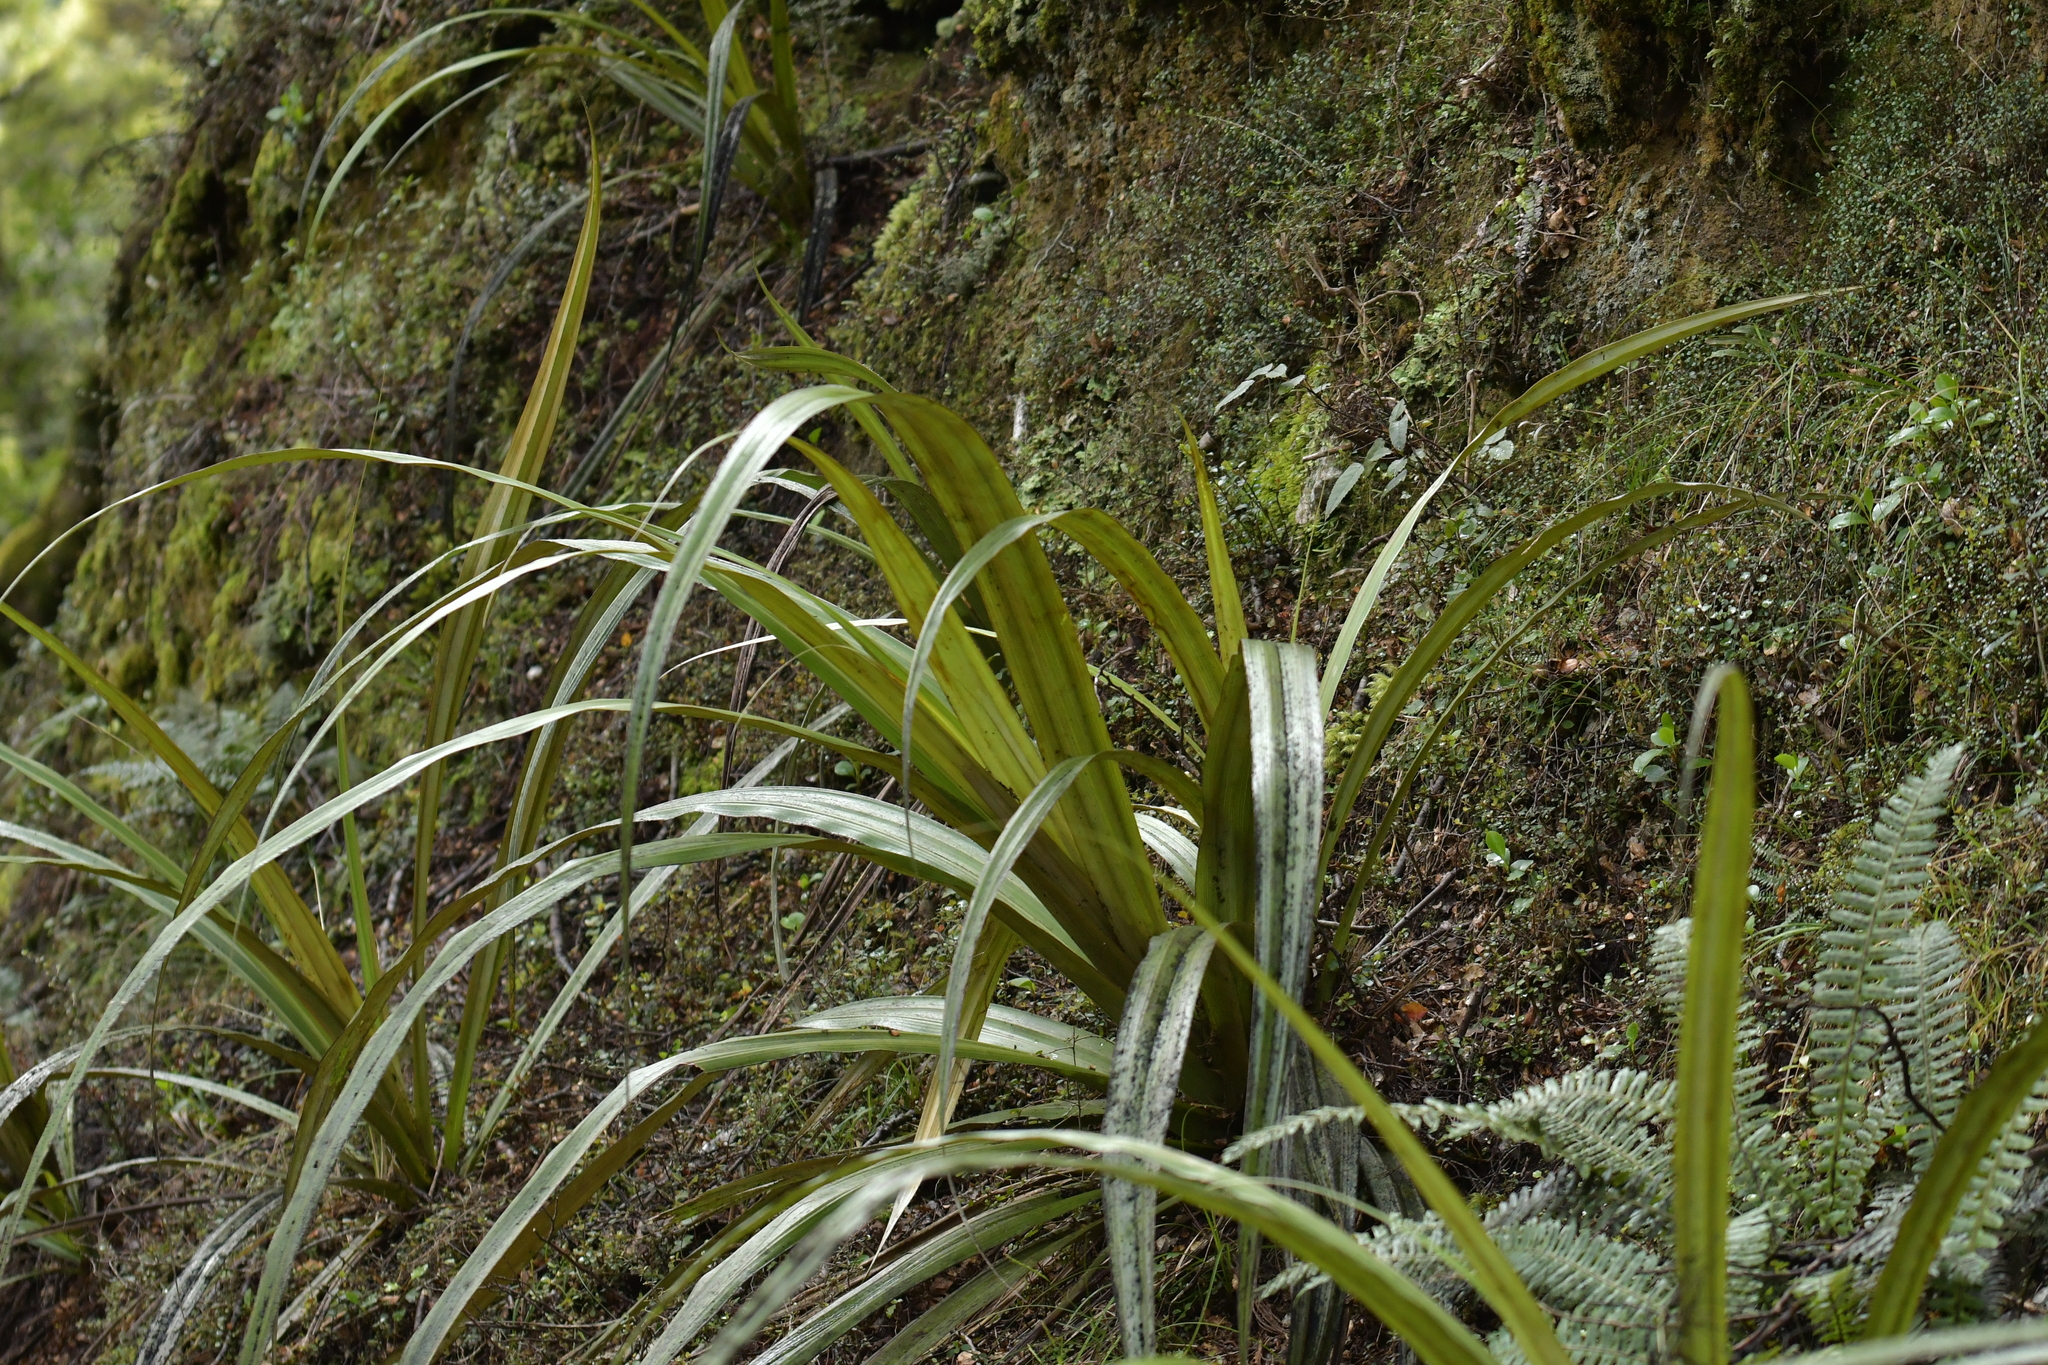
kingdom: Plantae
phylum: Tracheophyta
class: Liliopsida
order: Asparagales
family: Asteliaceae
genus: Astelia
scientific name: Astelia fragrans
